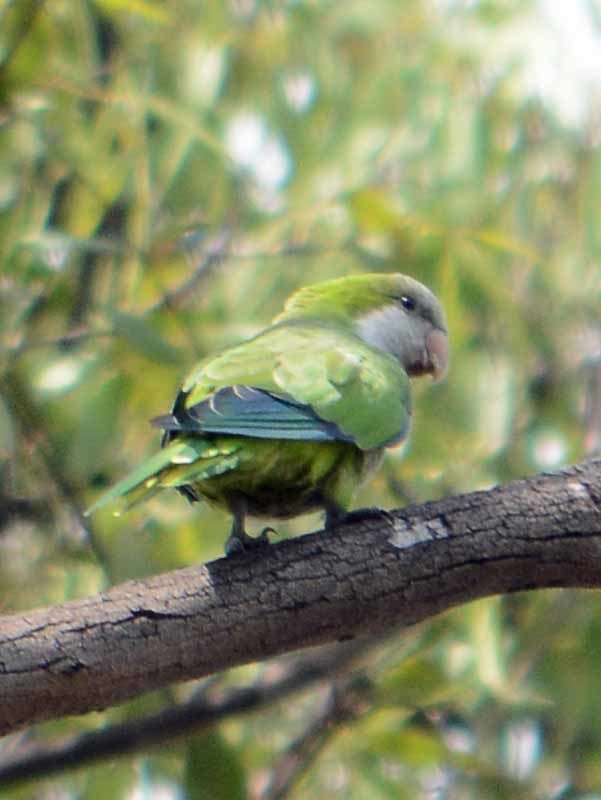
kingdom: Animalia
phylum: Chordata
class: Aves
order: Psittaciformes
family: Psittacidae
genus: Myiopsitta
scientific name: Myiopsitta monachus
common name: Monk parakeet
